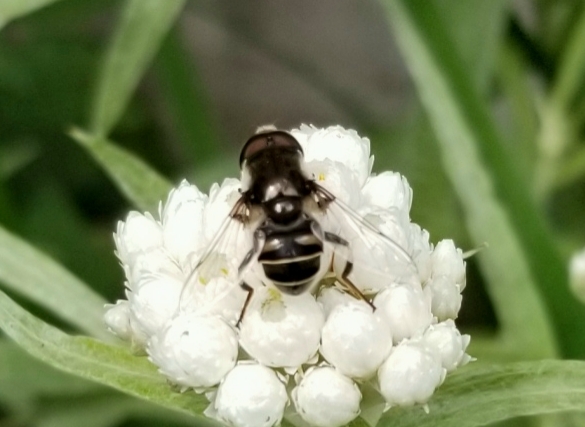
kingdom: Animalia
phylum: Arthropoda
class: Insecta
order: Diptera
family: Syrphidae
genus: Eristalis
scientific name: Eristalis dimidiata
